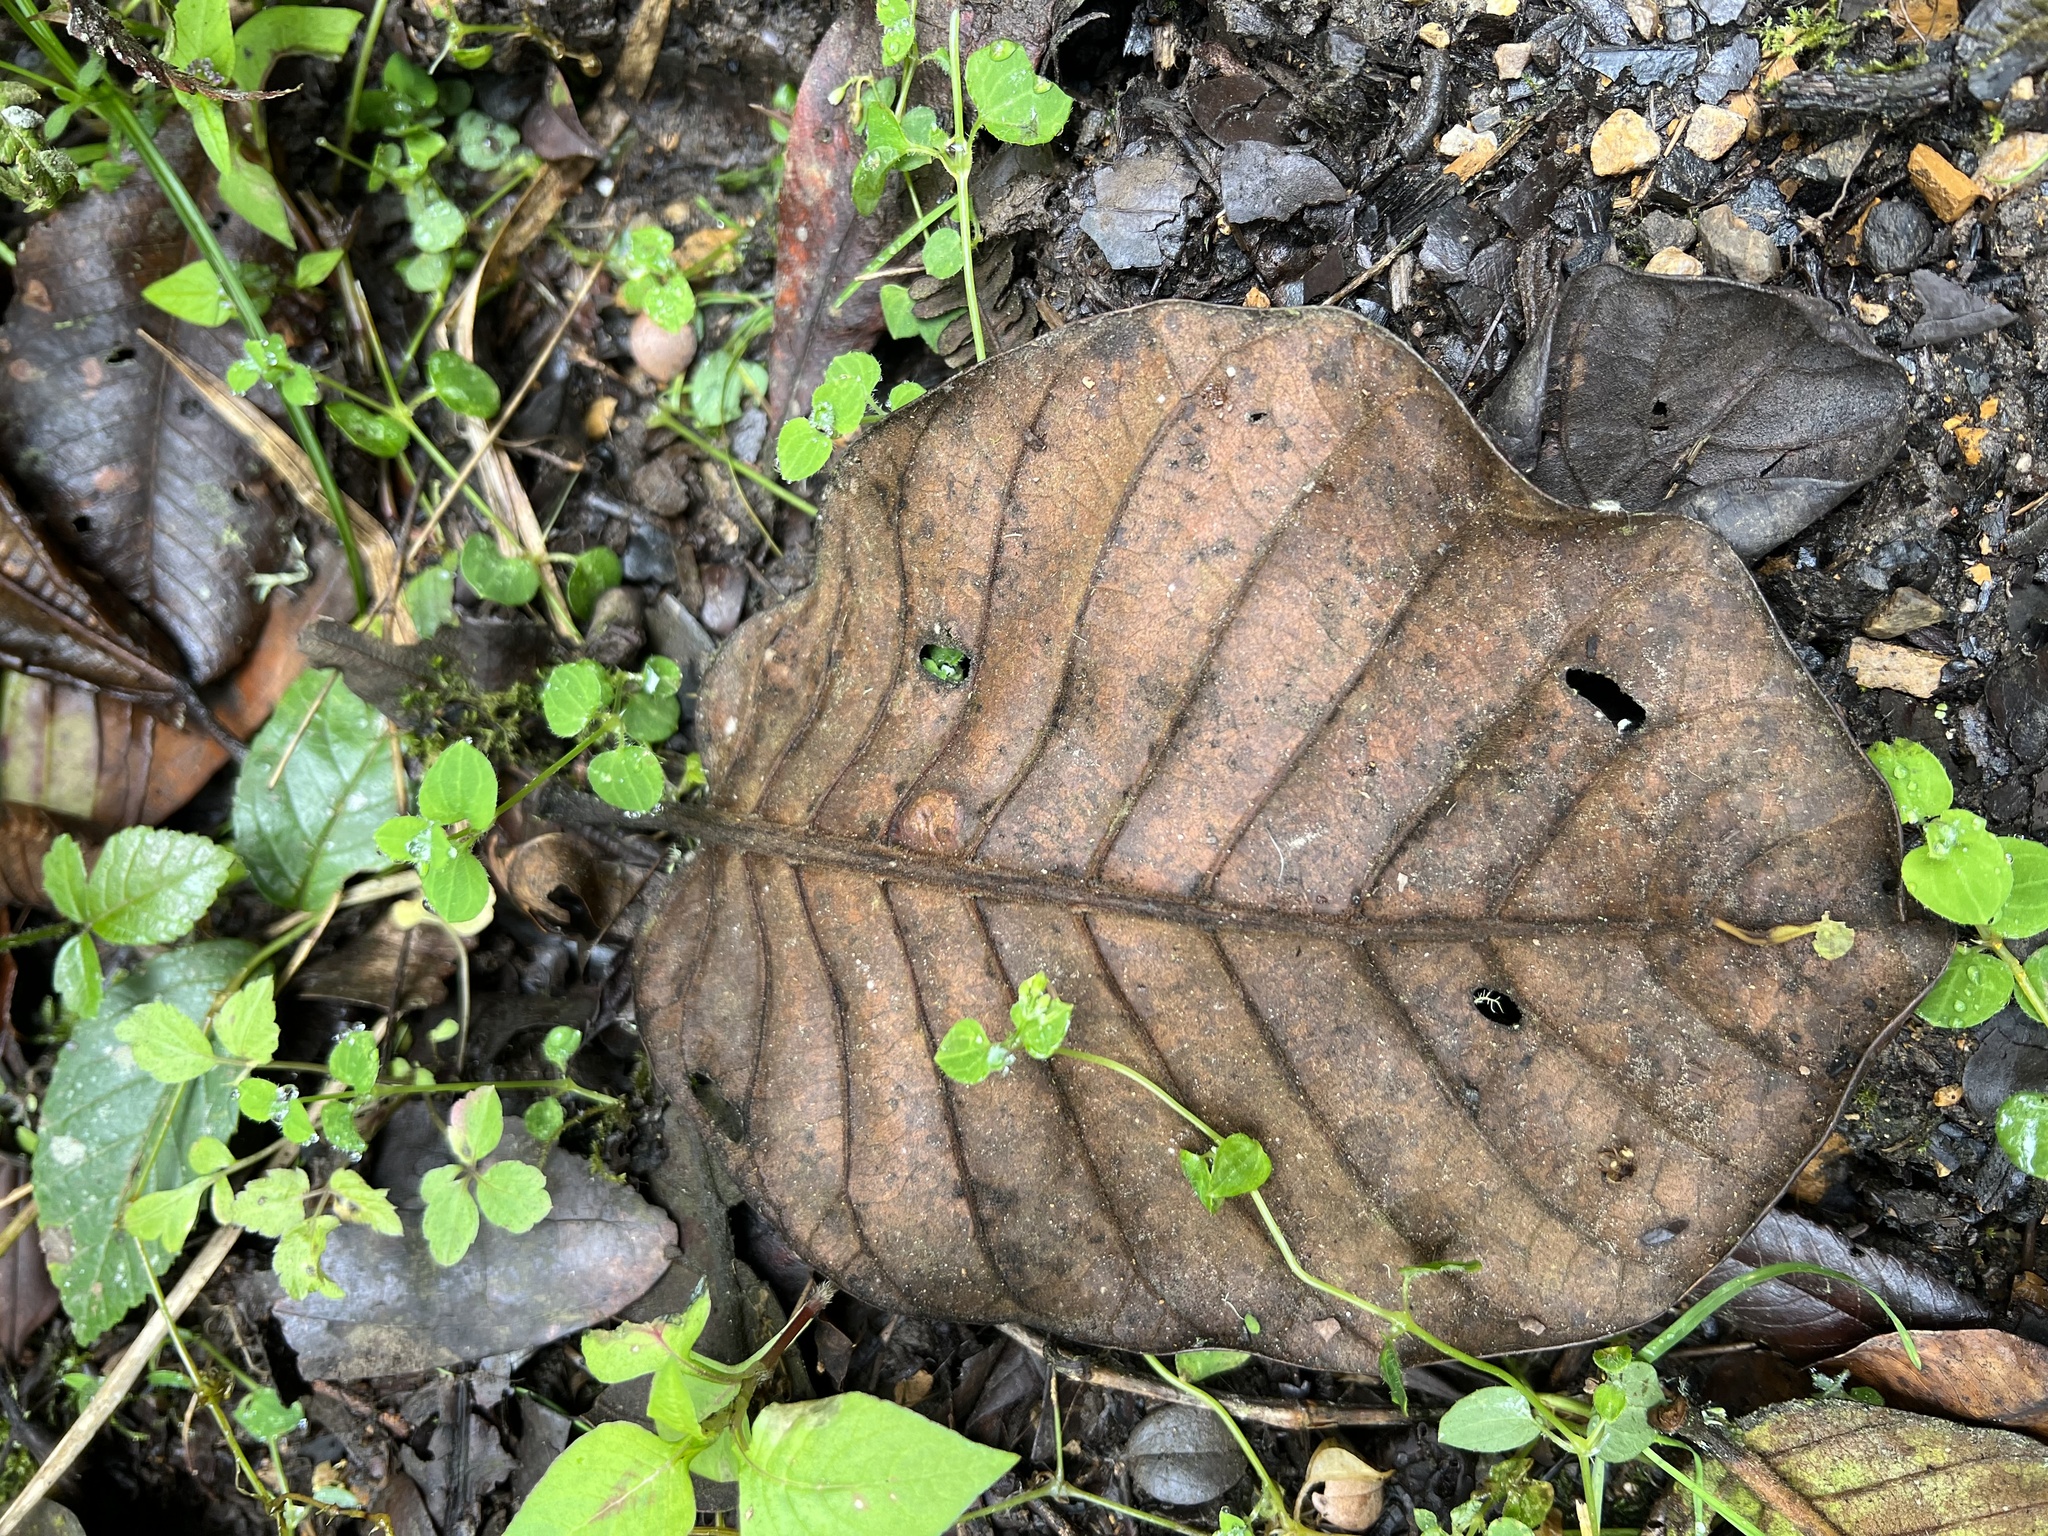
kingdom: Plantae
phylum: Tracheophyta
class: Magnoliopsida
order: Gentianales
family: Rubiaceae
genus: Ladenbergia
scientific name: Ladenbergia macrocarpa
